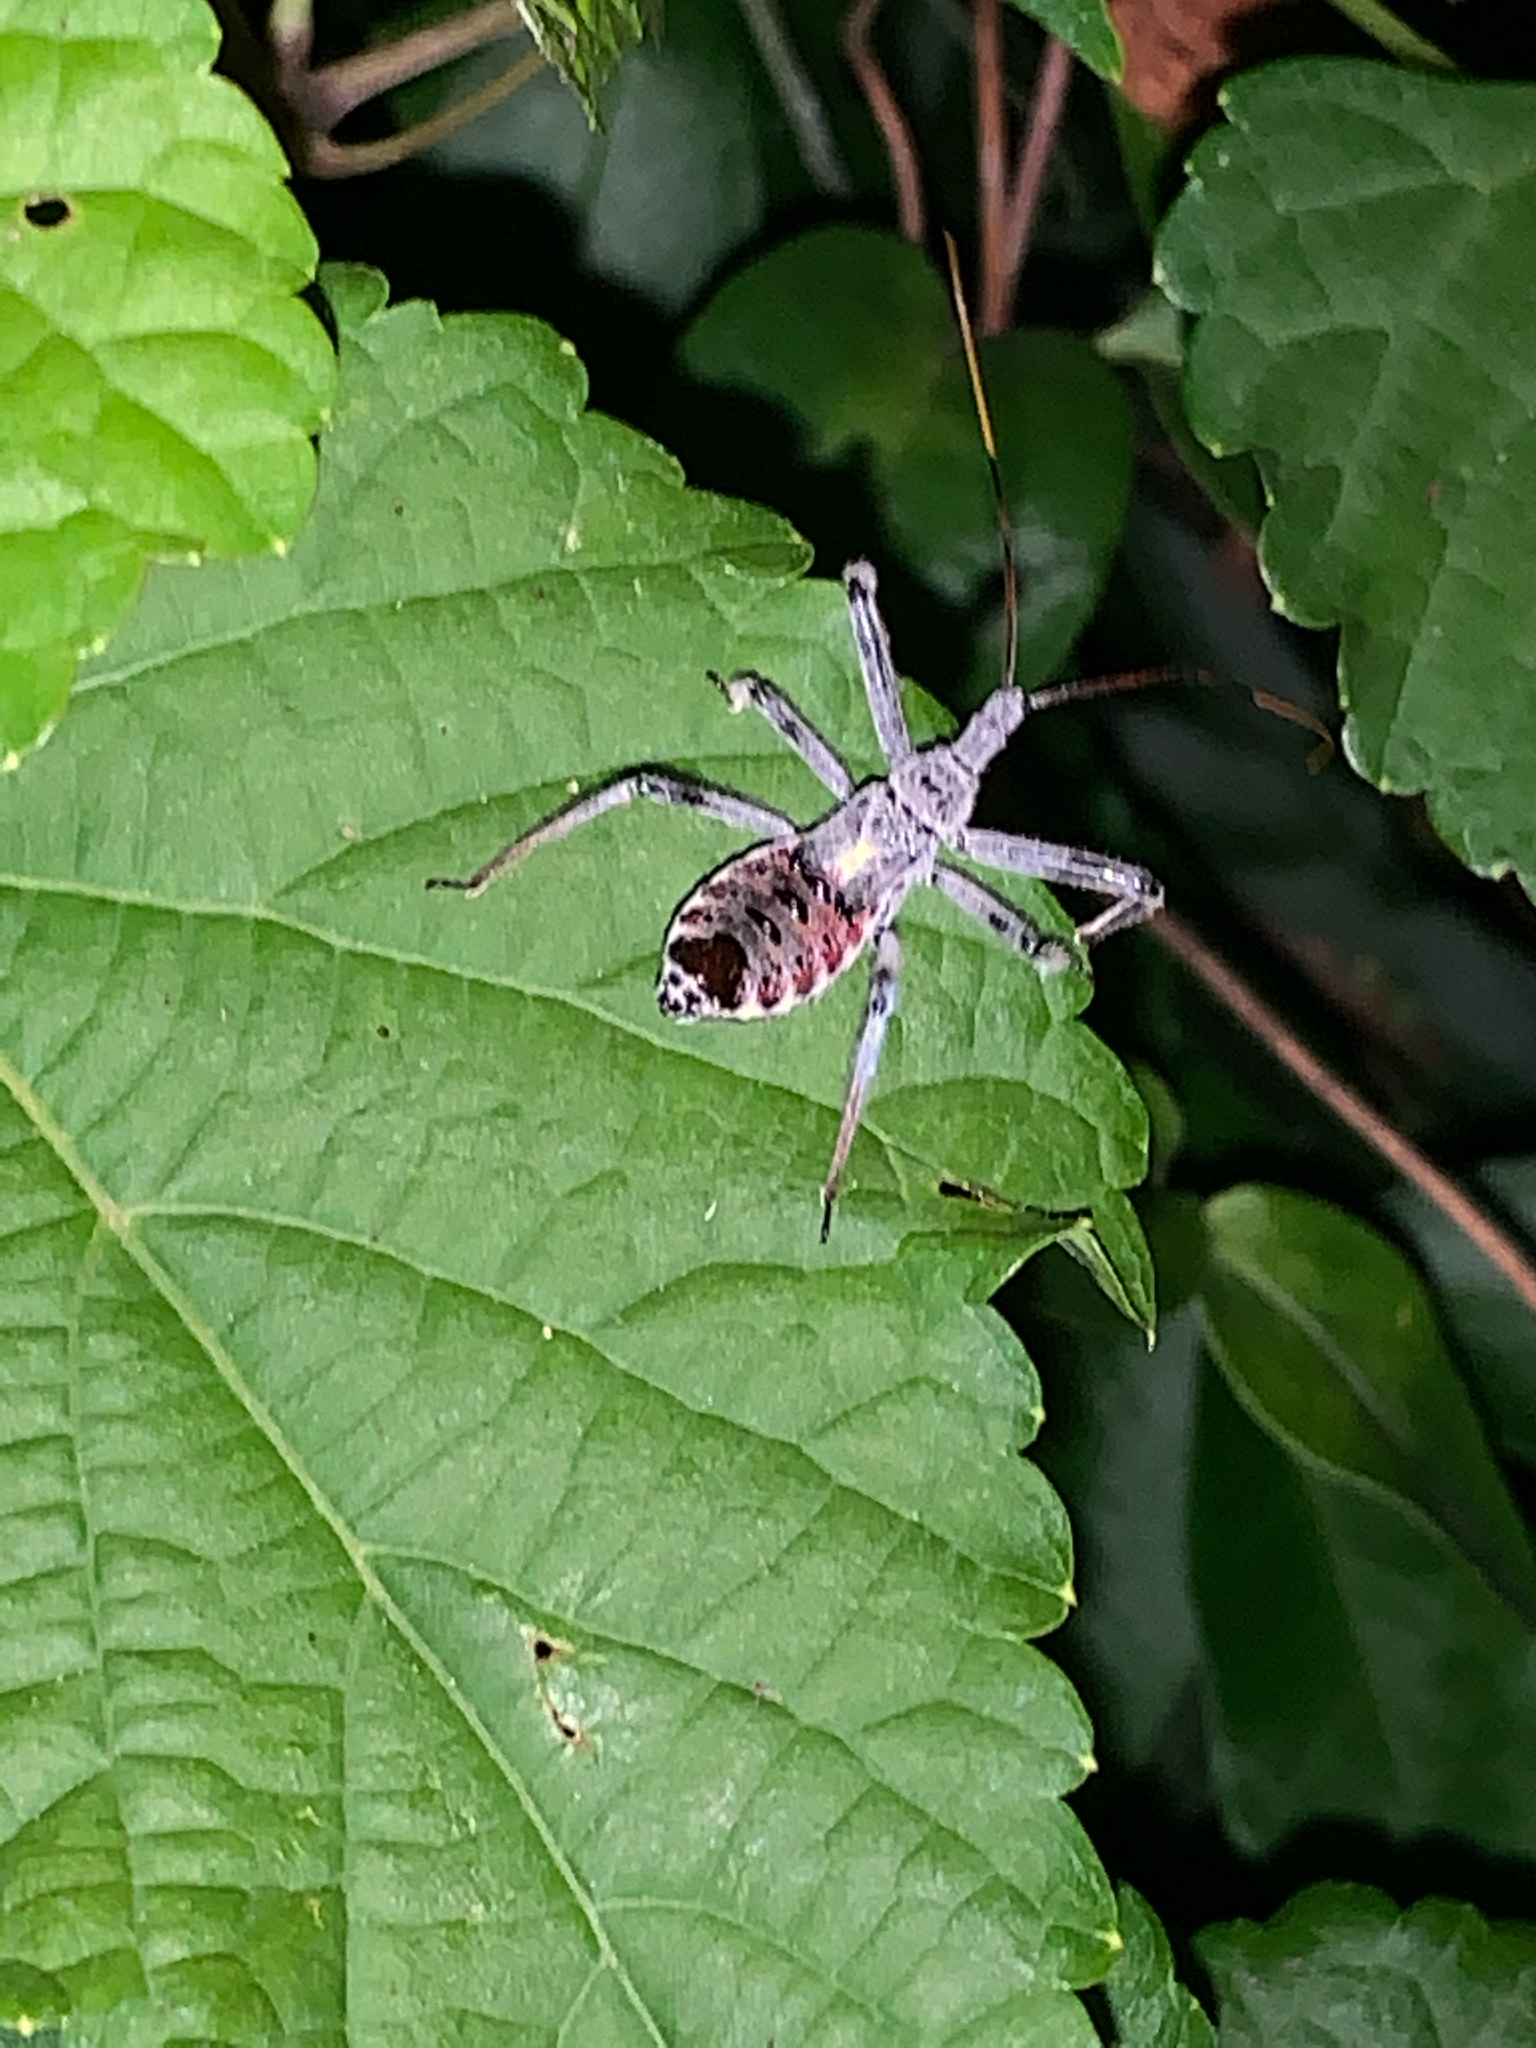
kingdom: Animalia
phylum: Arthropoda
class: Insecta
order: Hemiptera
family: Reduviidae
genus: Arilus
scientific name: Arilus cristatus
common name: North american wheel bug
